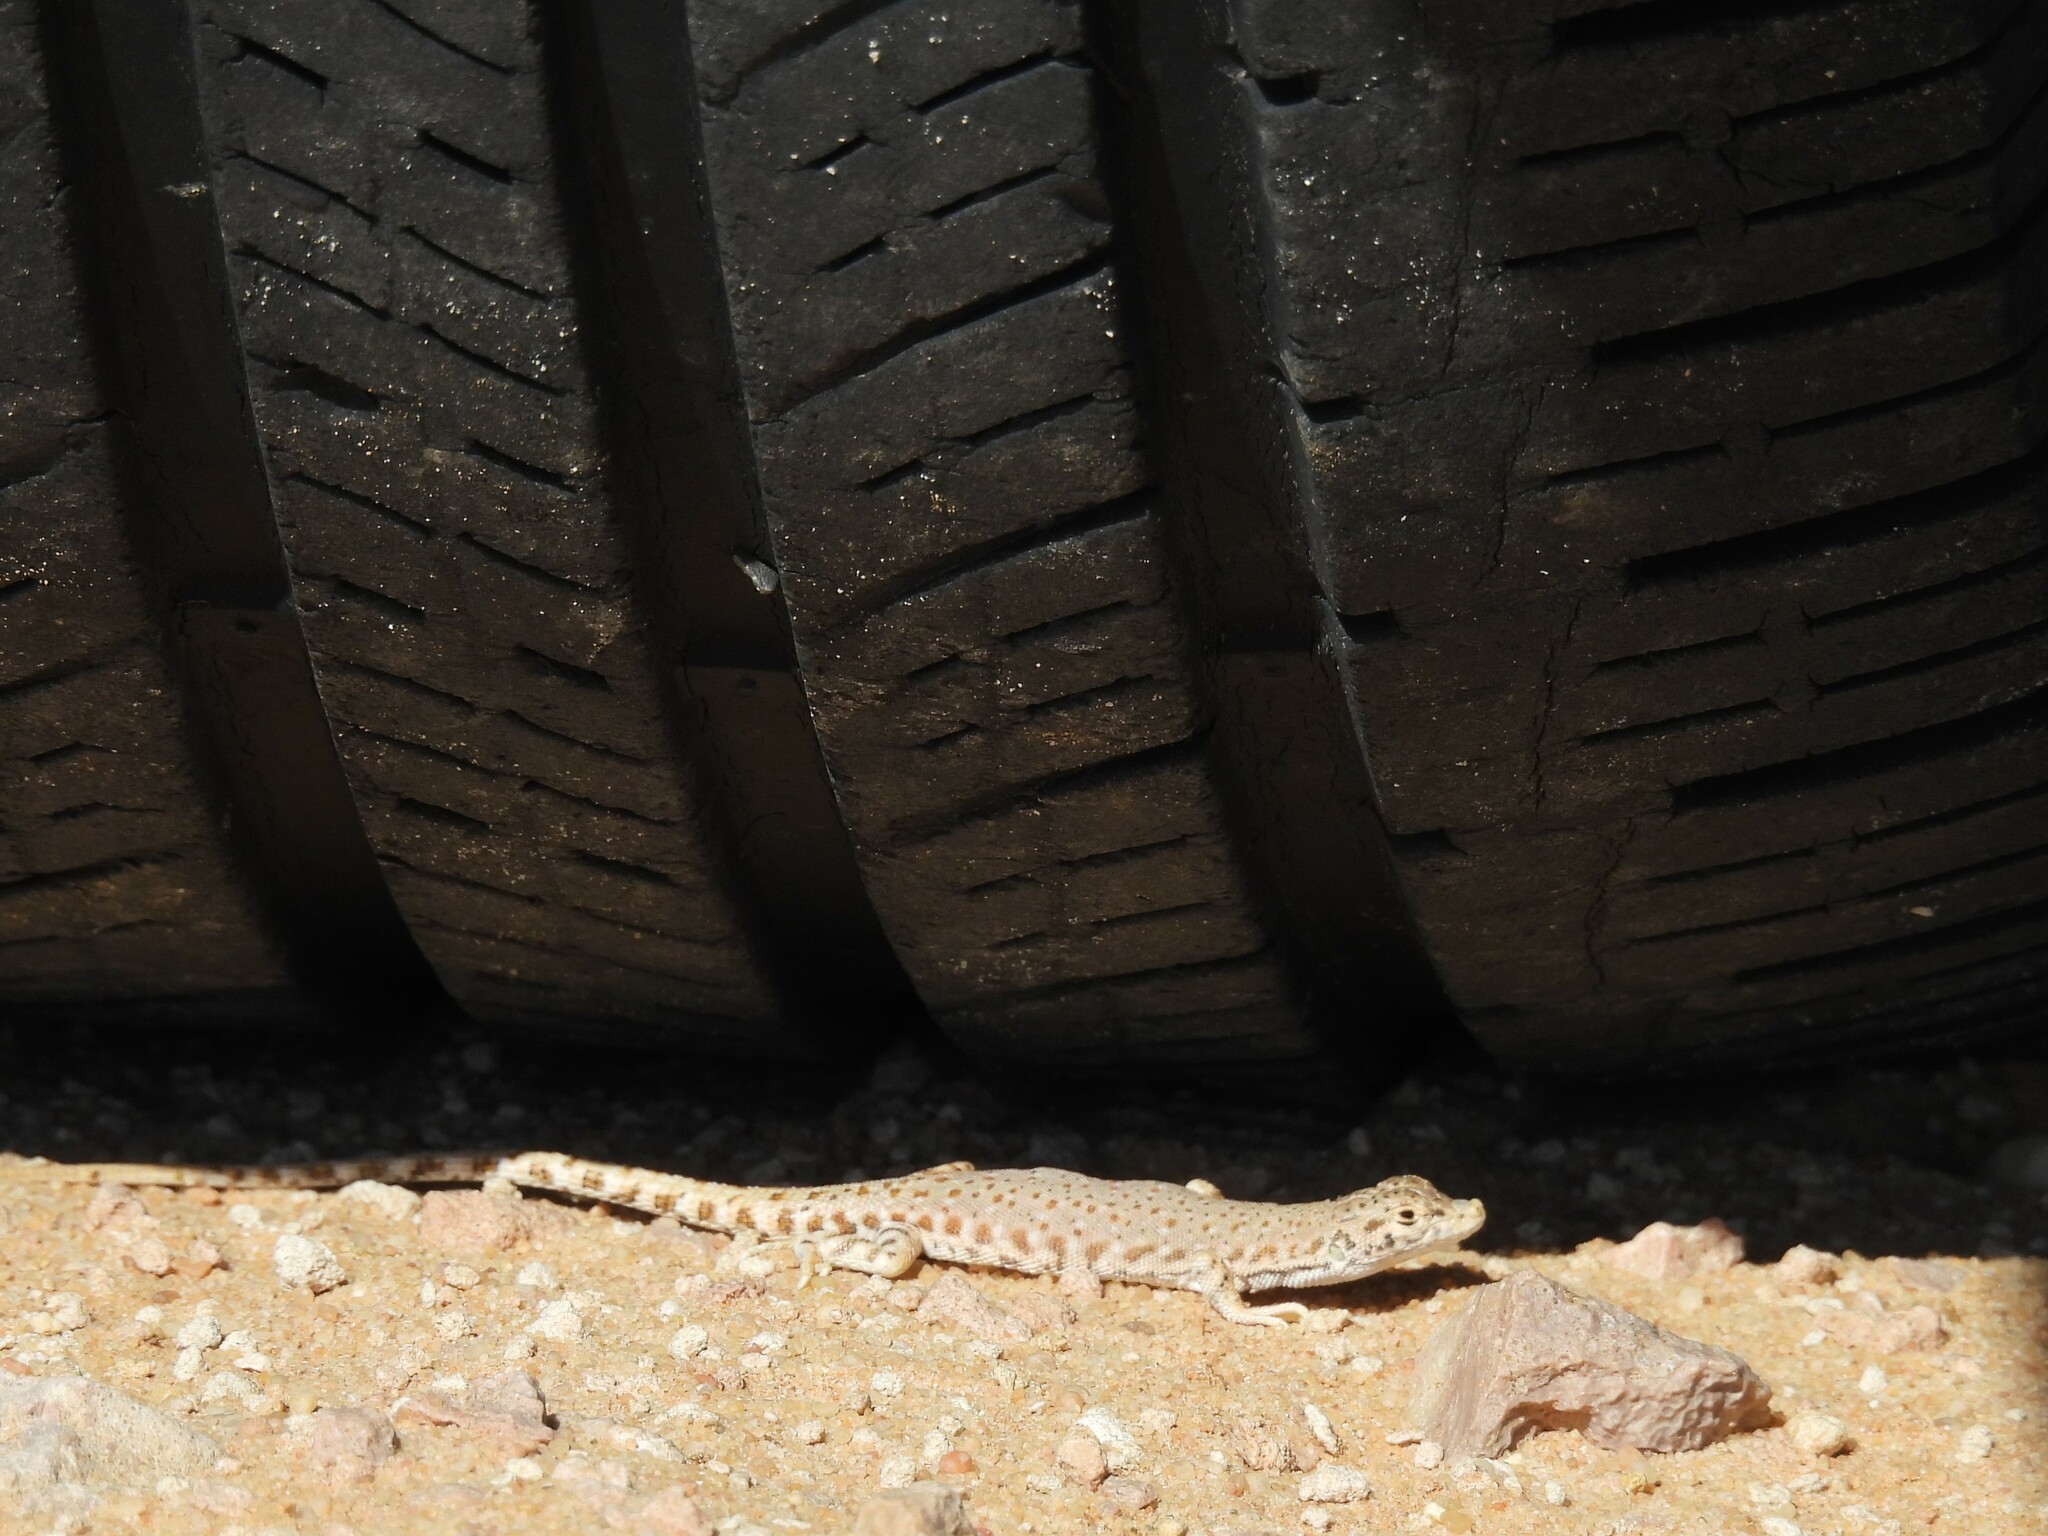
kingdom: Animalia
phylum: Chordata
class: Squamata
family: Lacertidae
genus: Mesalina
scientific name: Mesalina brevirostris
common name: Blanford's short-nosed desert lizard
